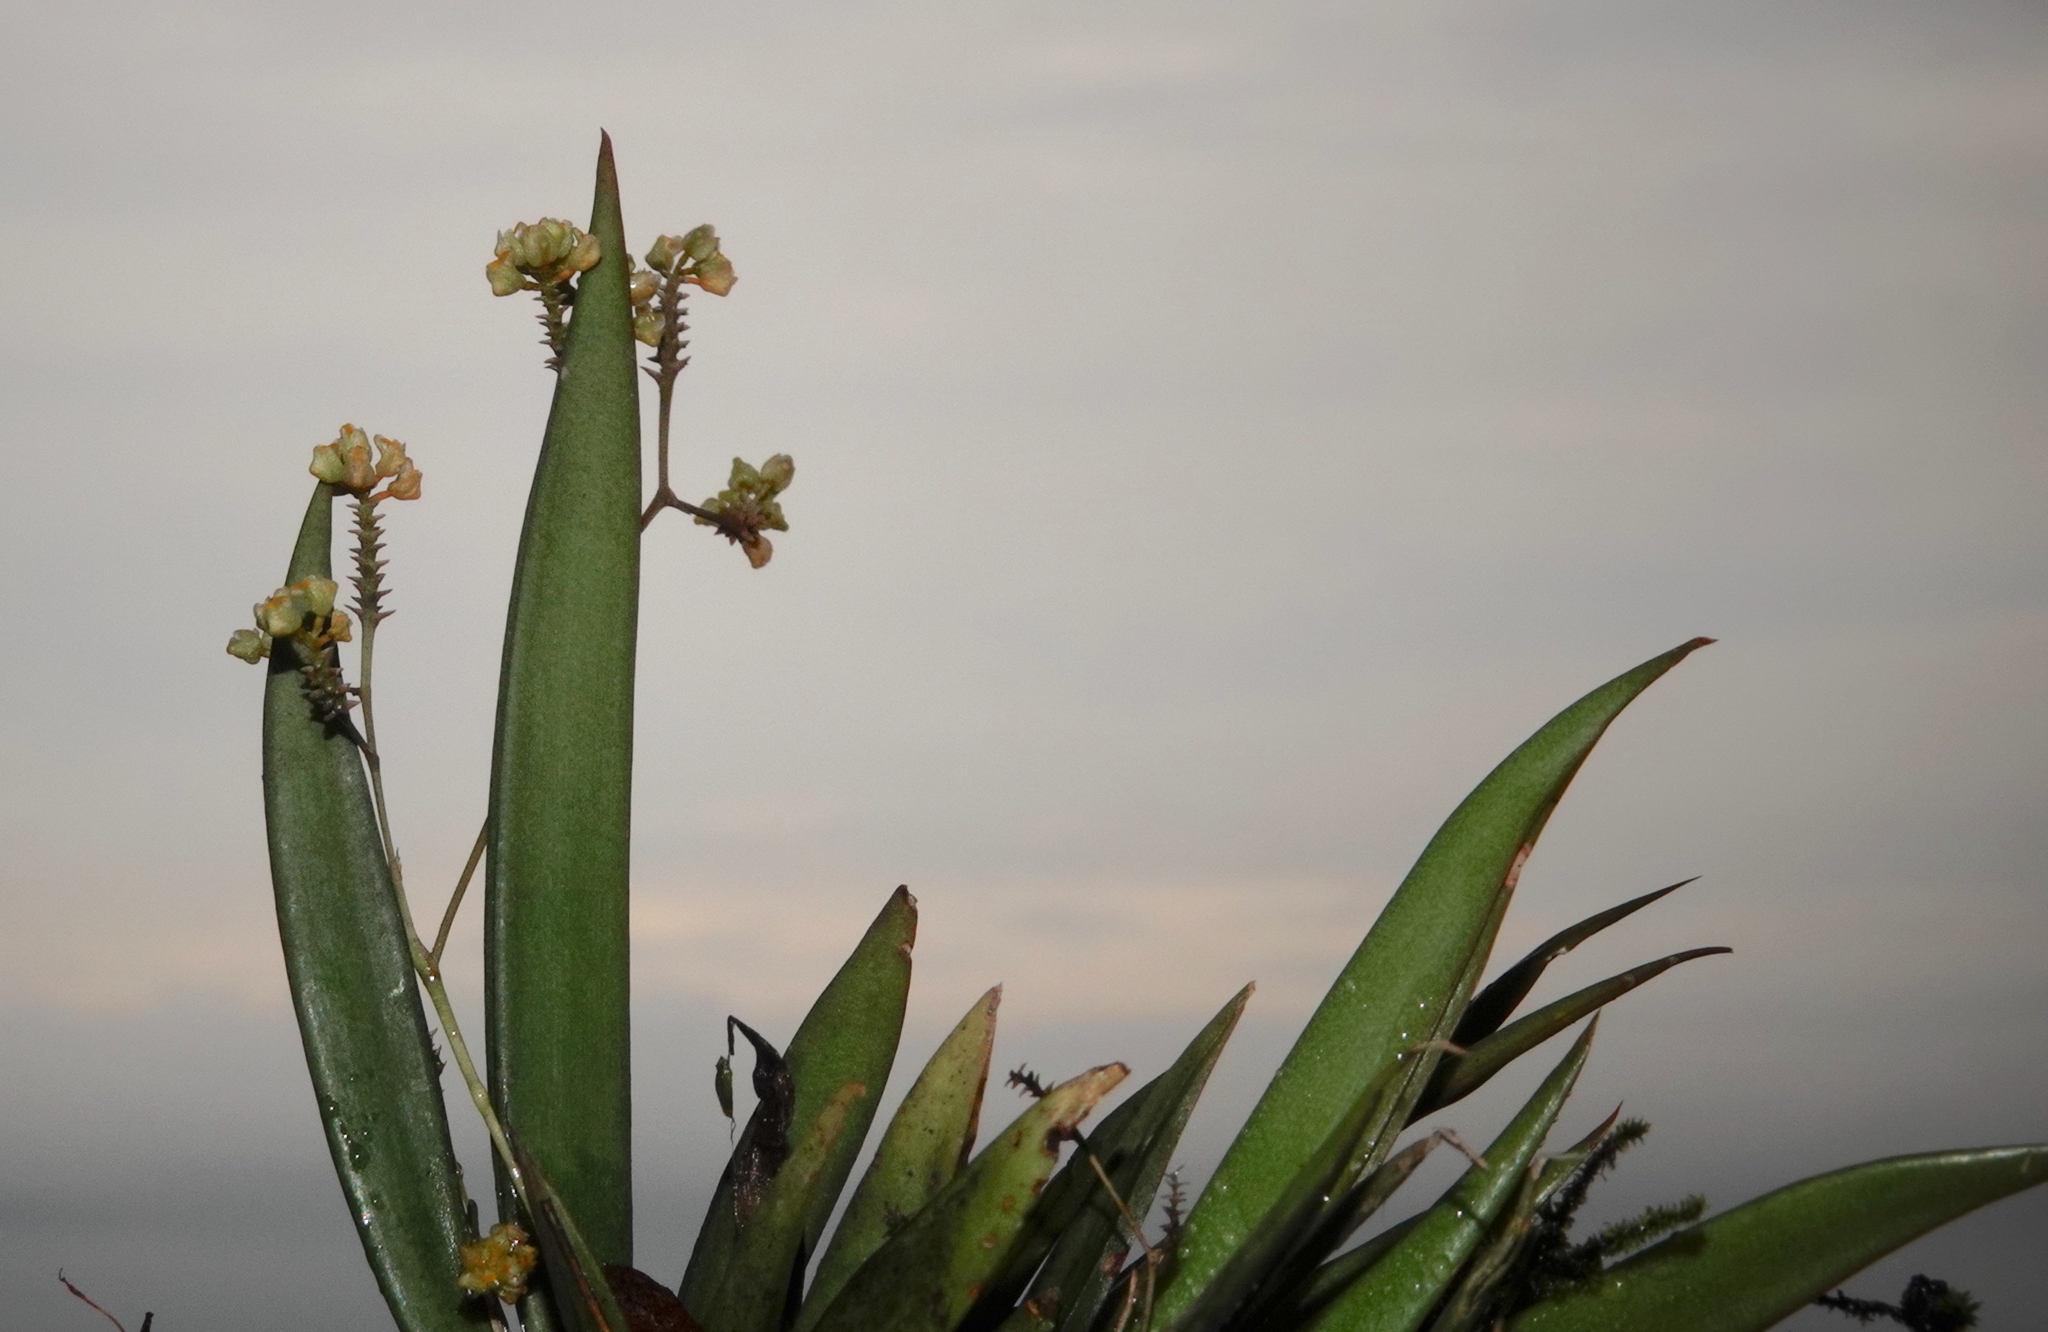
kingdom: Plantae
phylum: Tracheophyta
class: Liliopsida
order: Asparagales
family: Orchidaceae
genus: Trizeuxis
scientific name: Trizeuxis falcata
